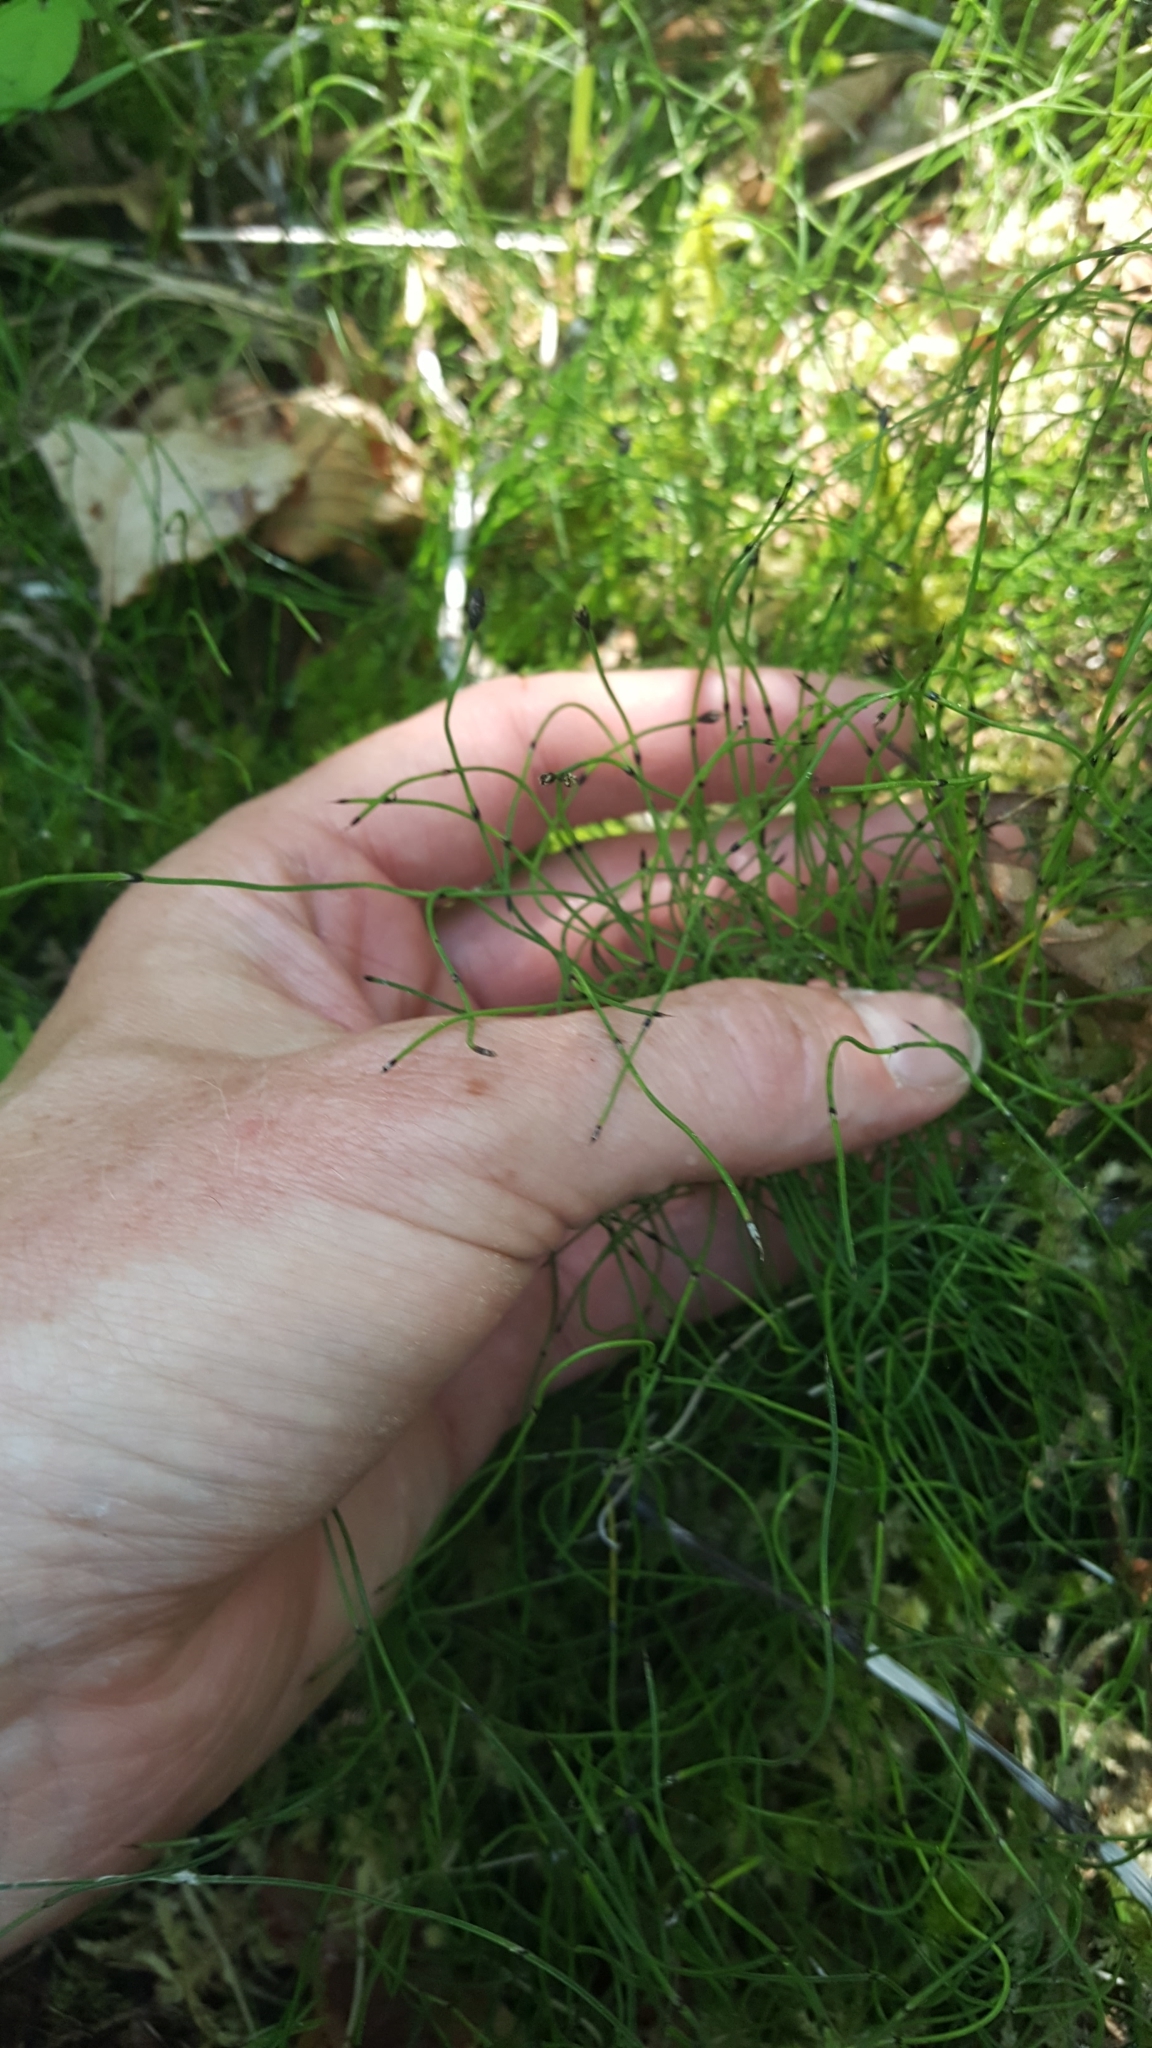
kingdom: Plantae
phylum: Tracheophyta
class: Polypodiopsida
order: Equisetales
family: Equisetaceae
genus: Equisetum
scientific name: Equisetum scirpoides
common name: Delicate horsetail
